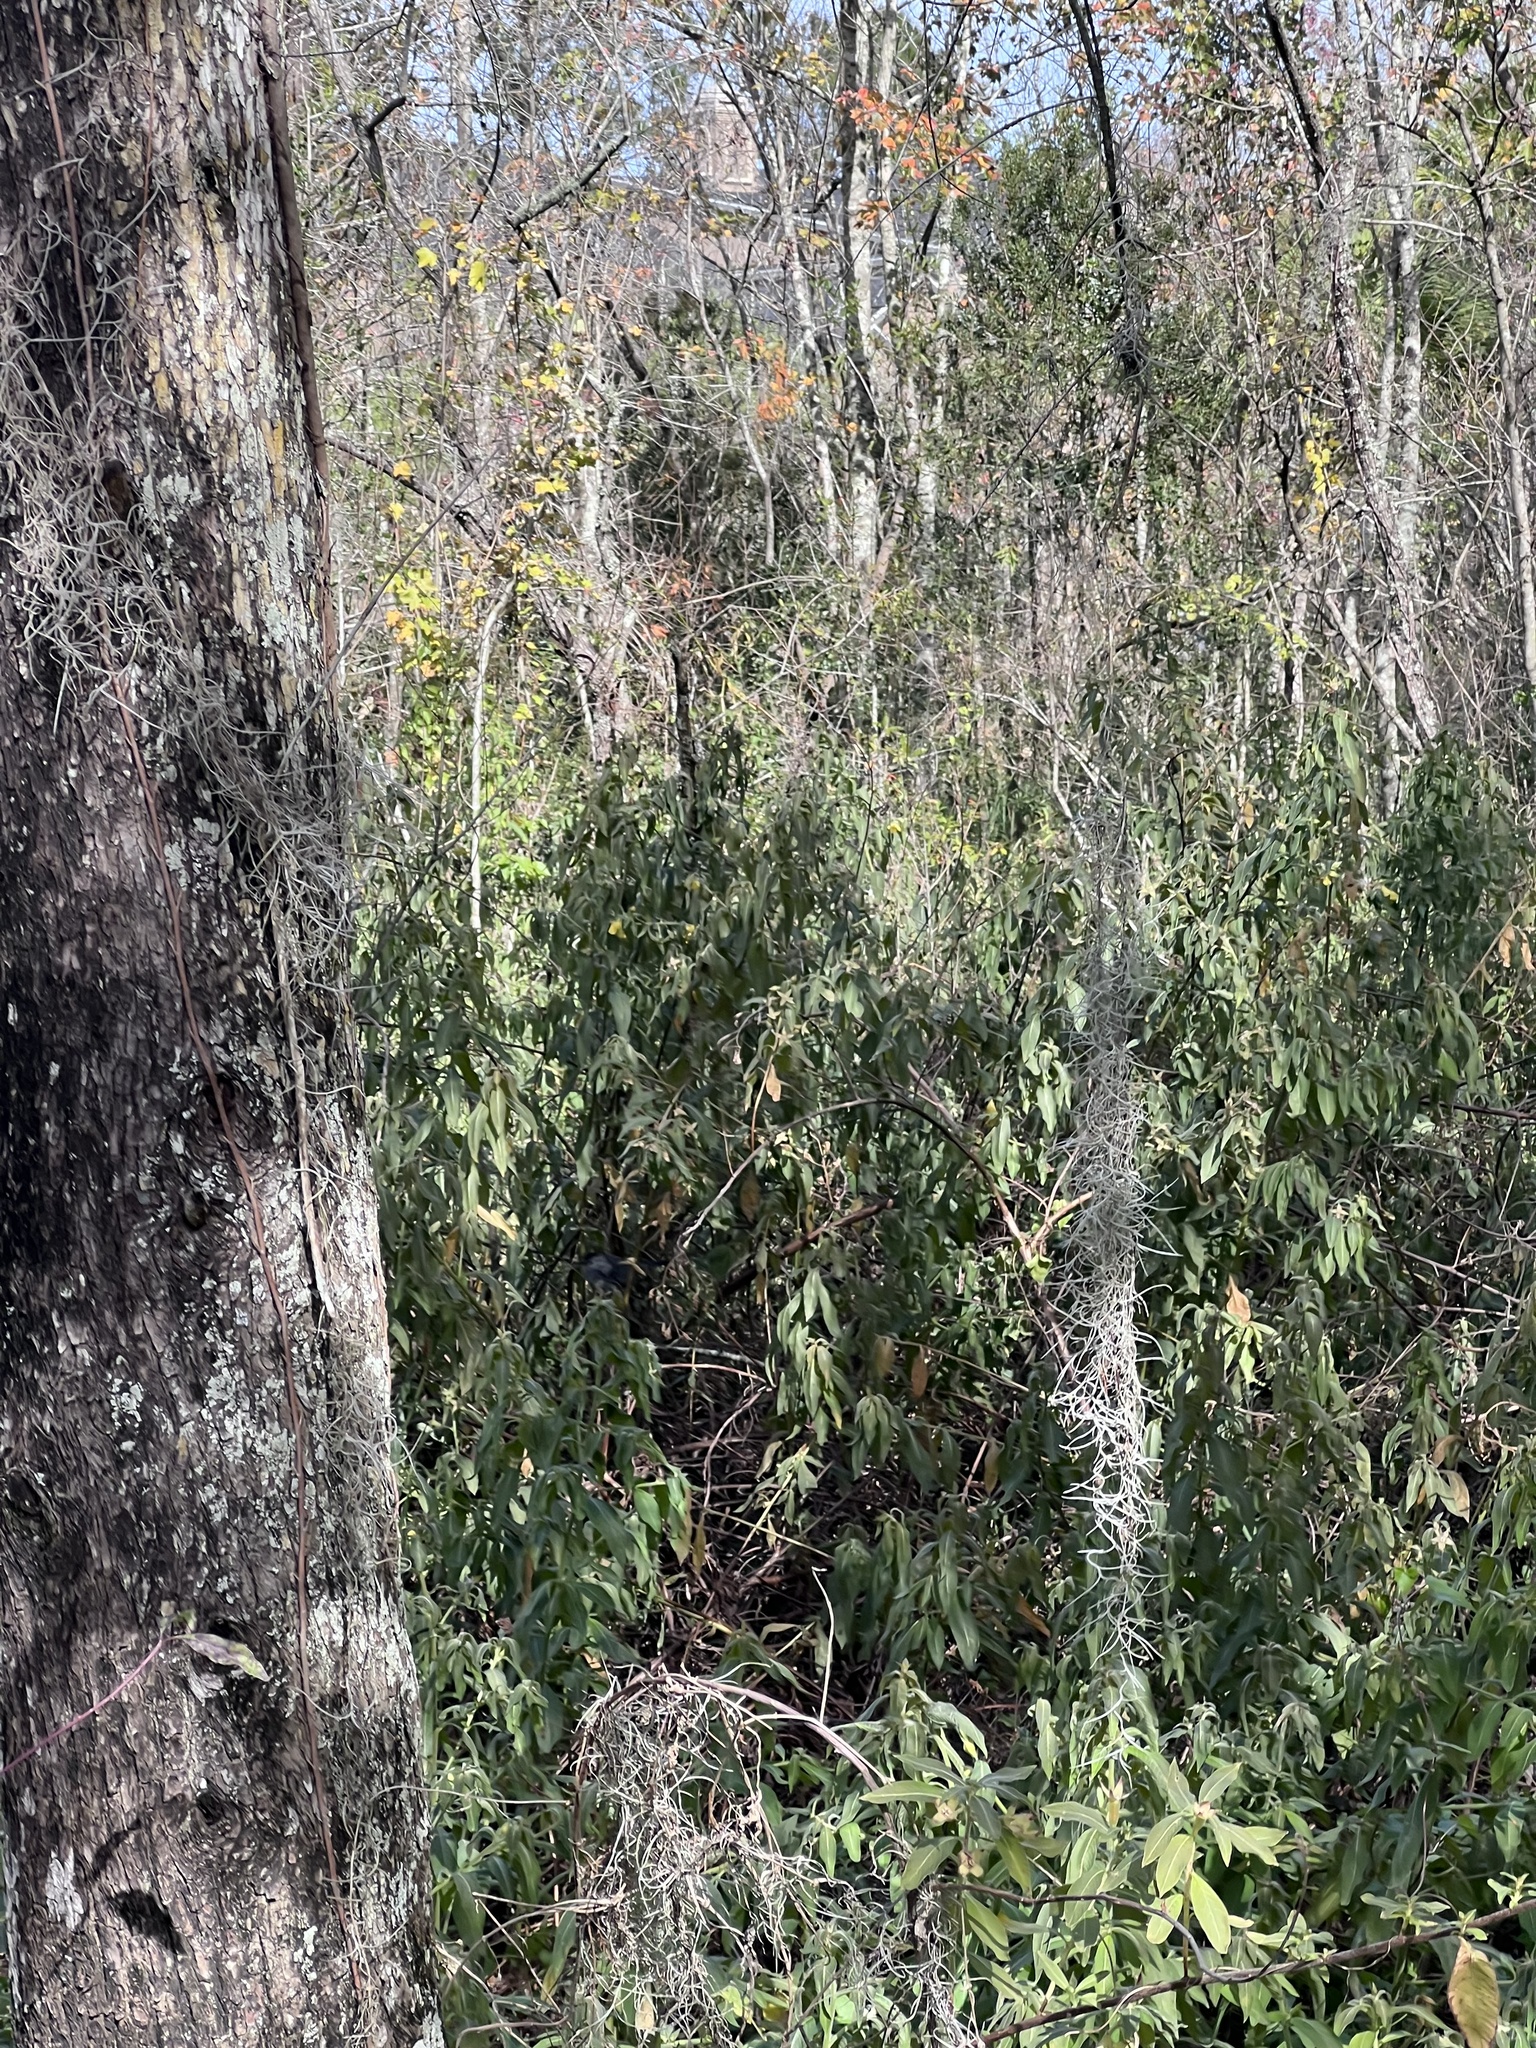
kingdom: Animalia
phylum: Chordata
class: Aves
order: Passeriformes
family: Mimidae
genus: Dumetella
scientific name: Dumetella carolinensis
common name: Gray catbird
